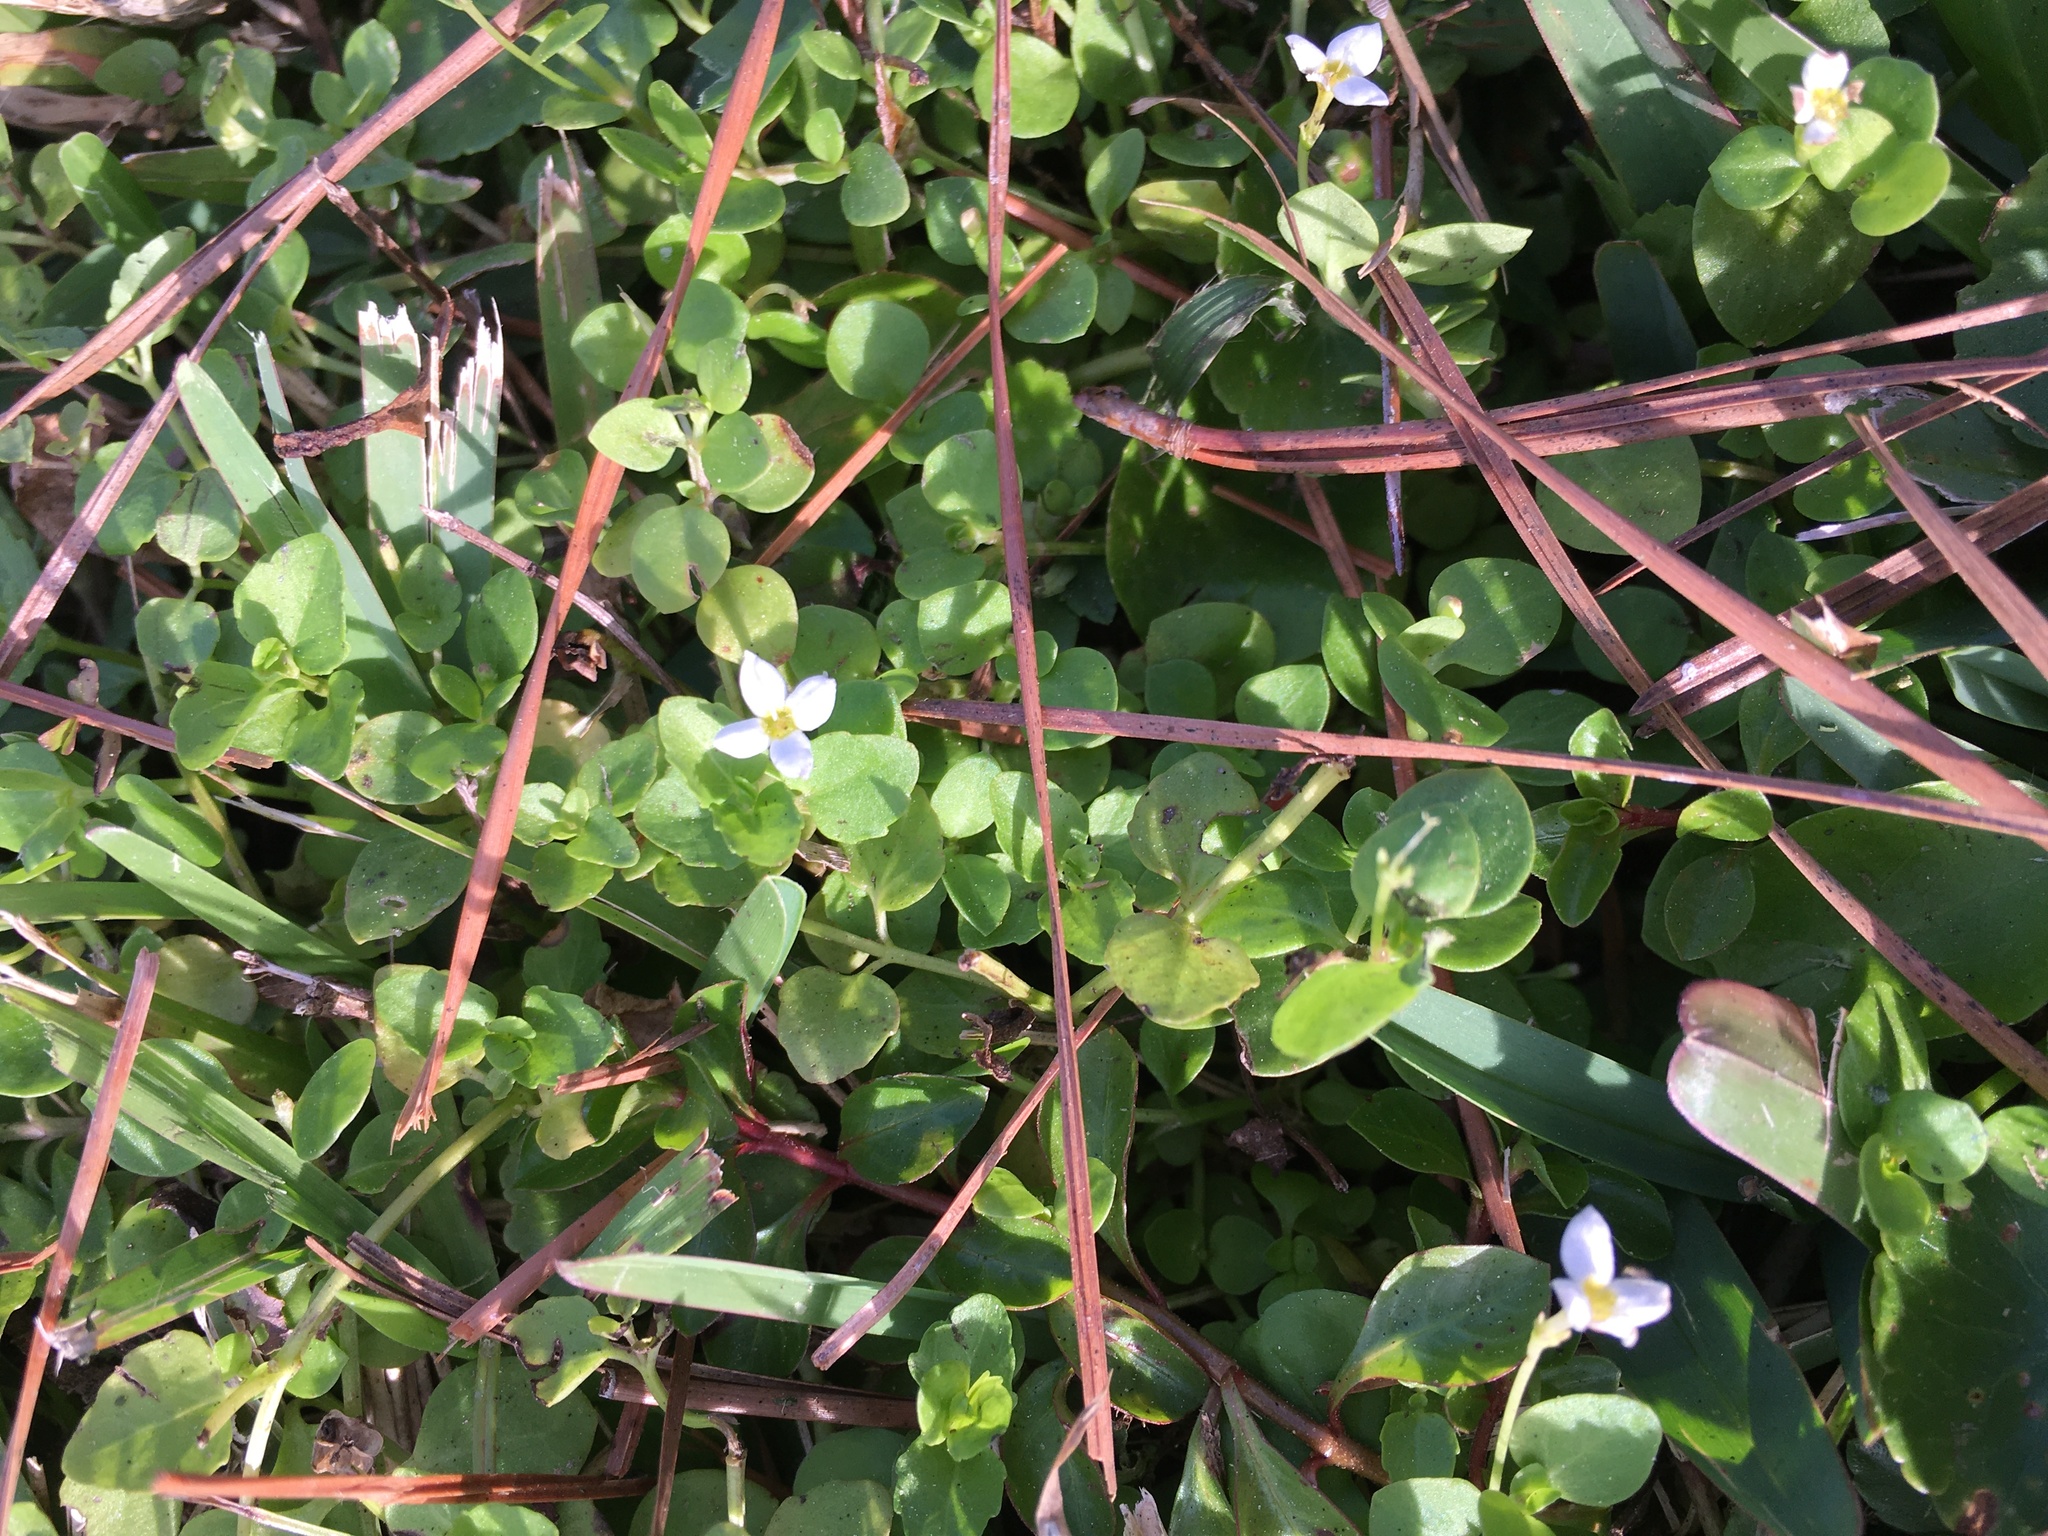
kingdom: Plantae
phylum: Tracheophyta
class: Magnoliopsida
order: Gentianales
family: Rubiaceae
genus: Houstonia
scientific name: Houstonia procumbens
